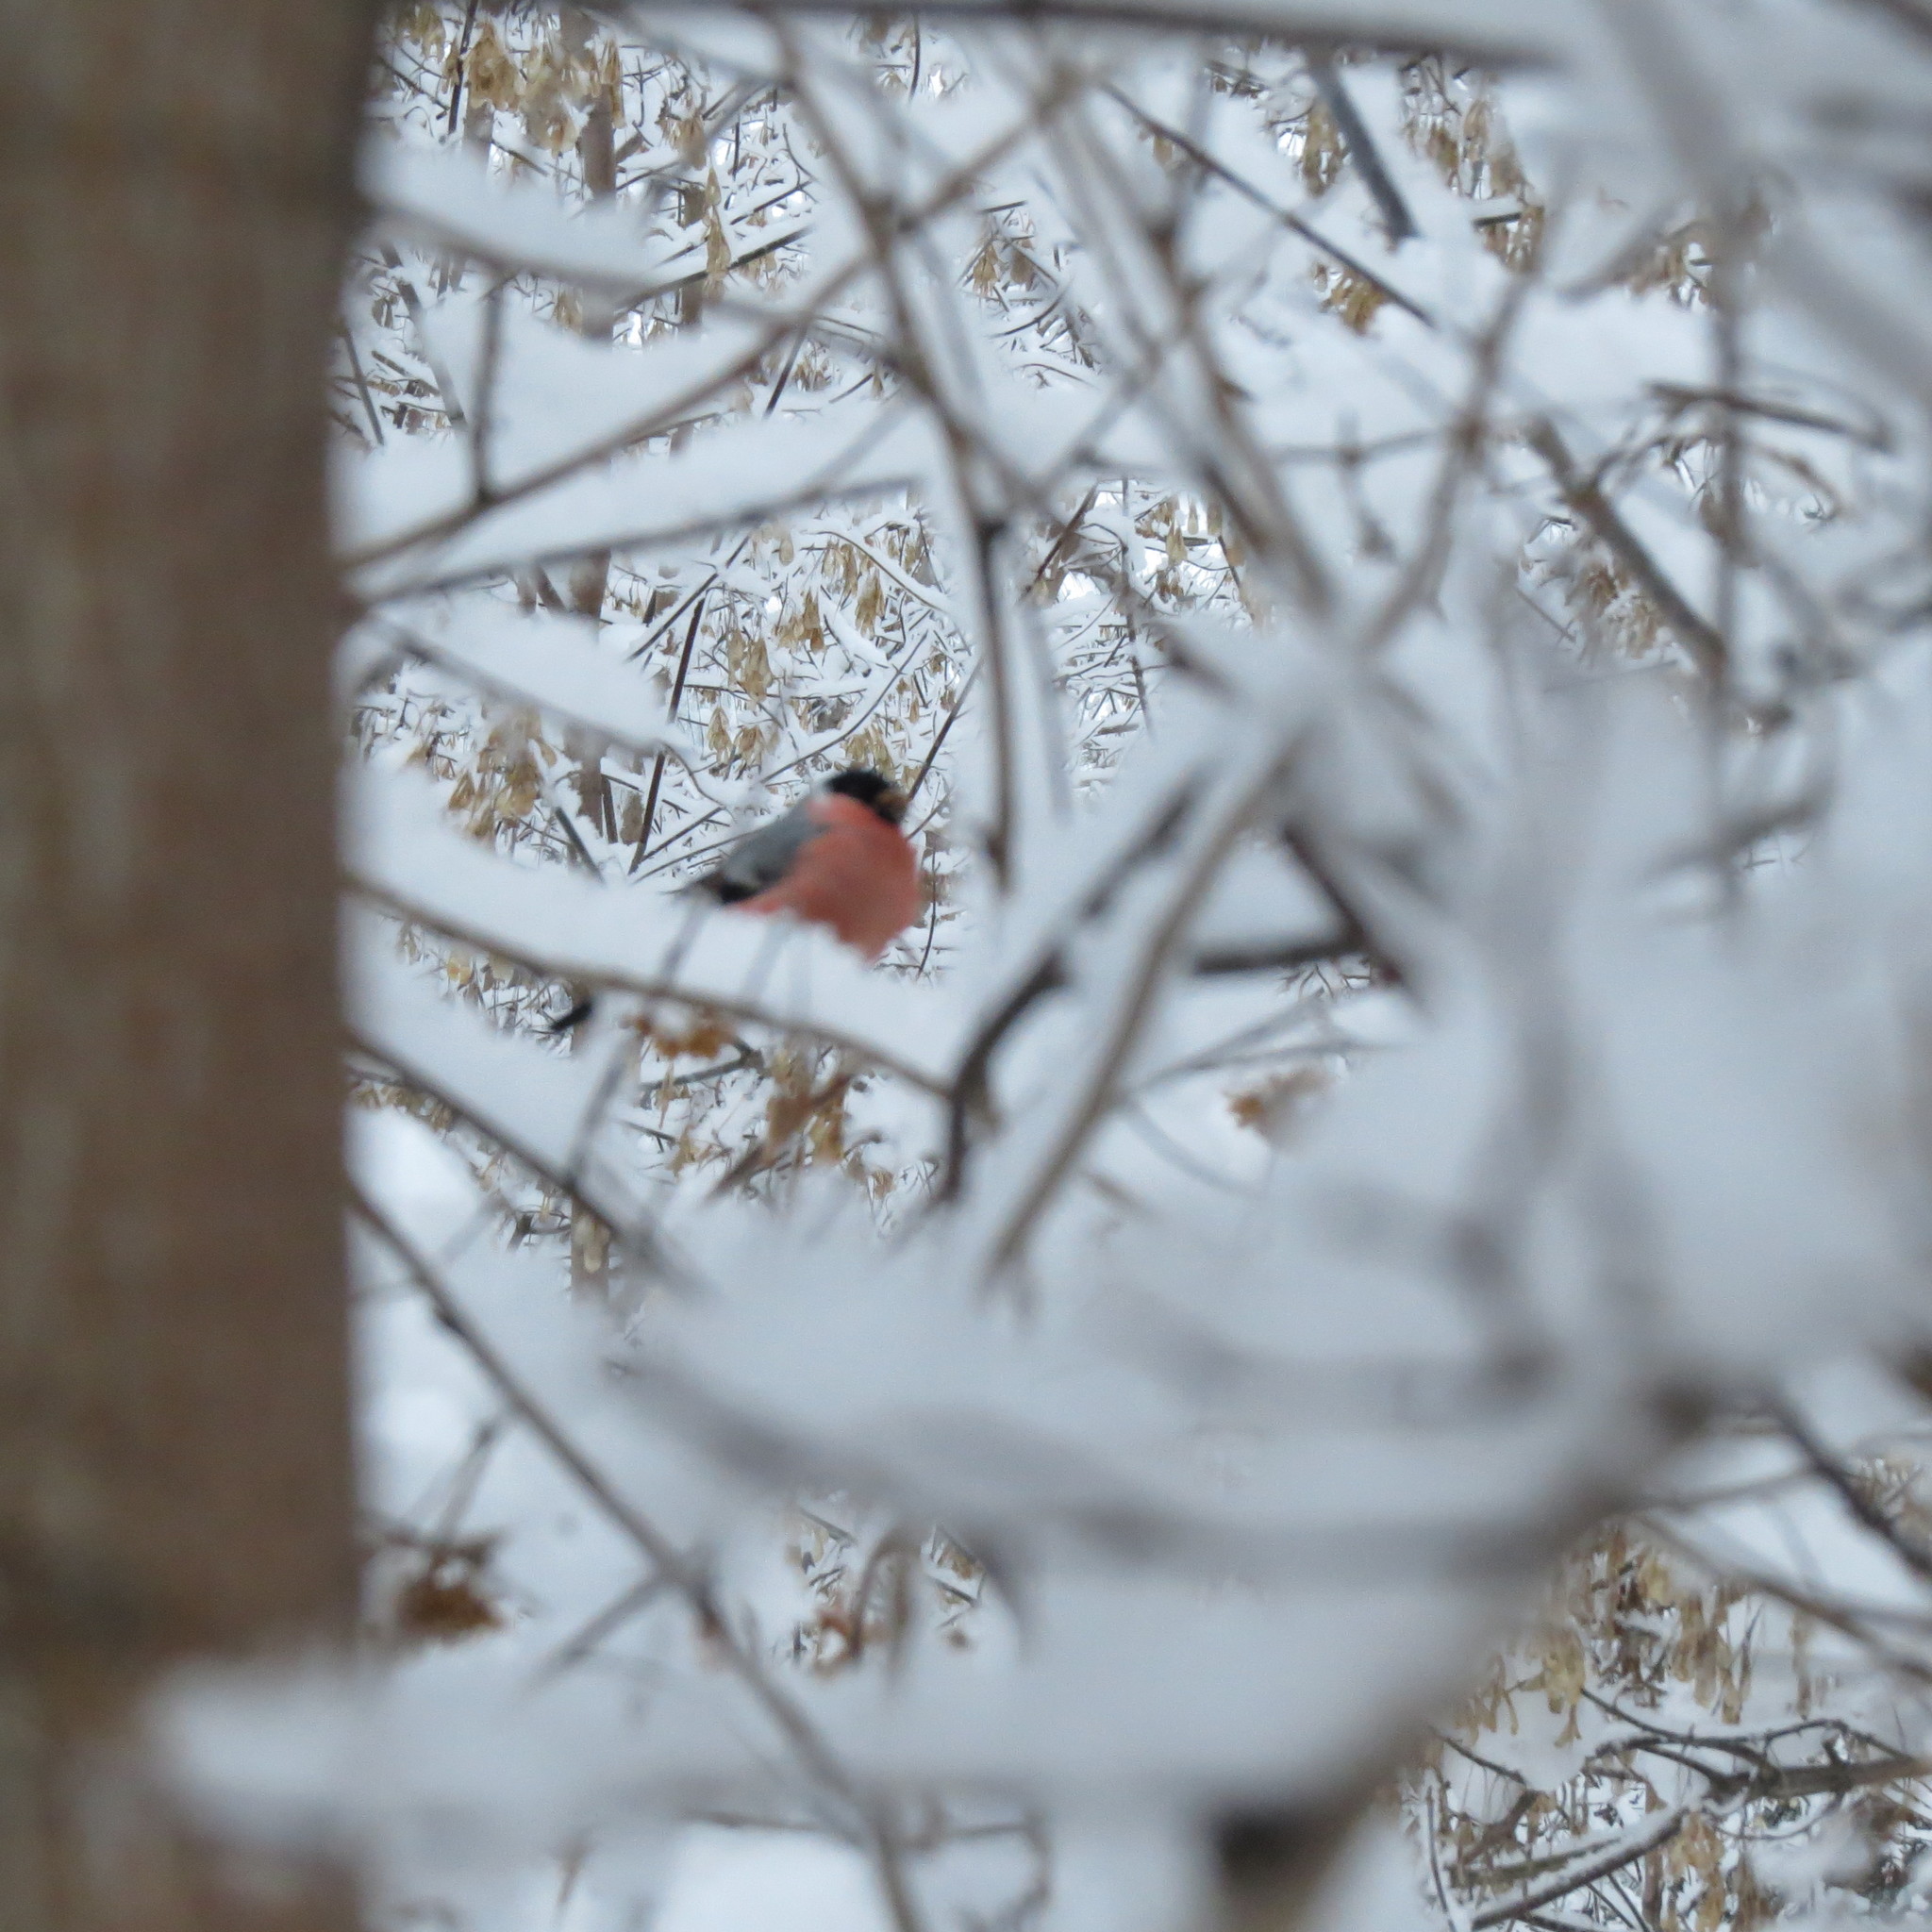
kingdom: Animalia
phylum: Chordata
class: Aves
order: Passeriformes
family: Fringillidae
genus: Pyrrhula
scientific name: Pyrrhula pyrrhula
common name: Eurasian bullfinch
